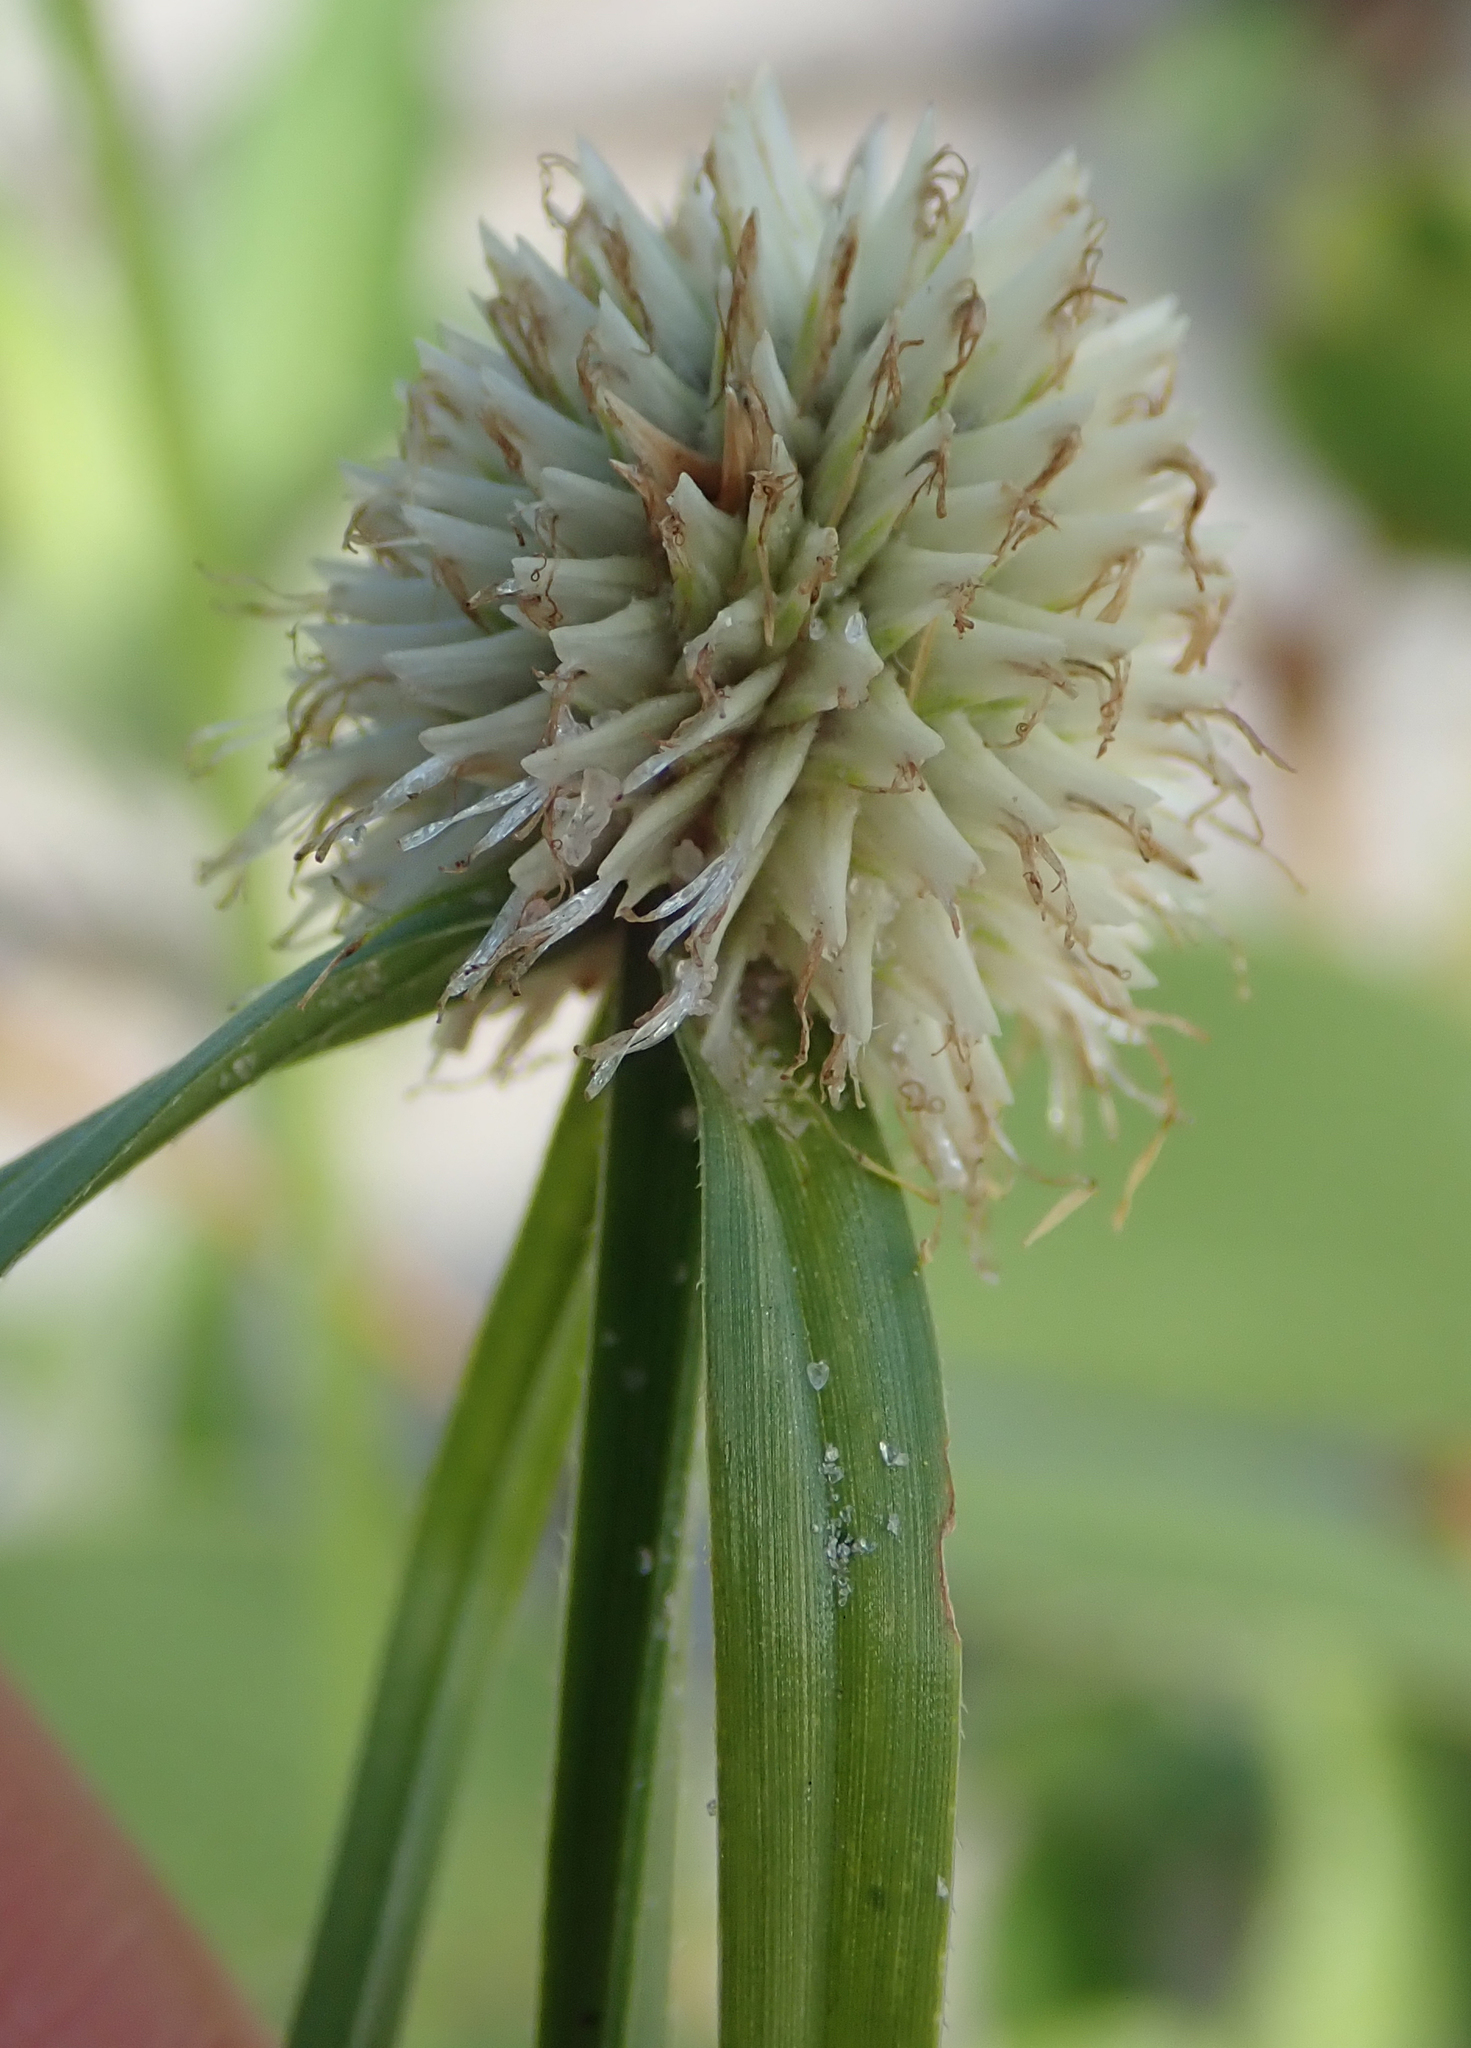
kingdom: Plantae
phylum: Tracheophyta
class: Liliopsida
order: Poales
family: Cyperaceae
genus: Cyperus
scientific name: Cyperus alatus
